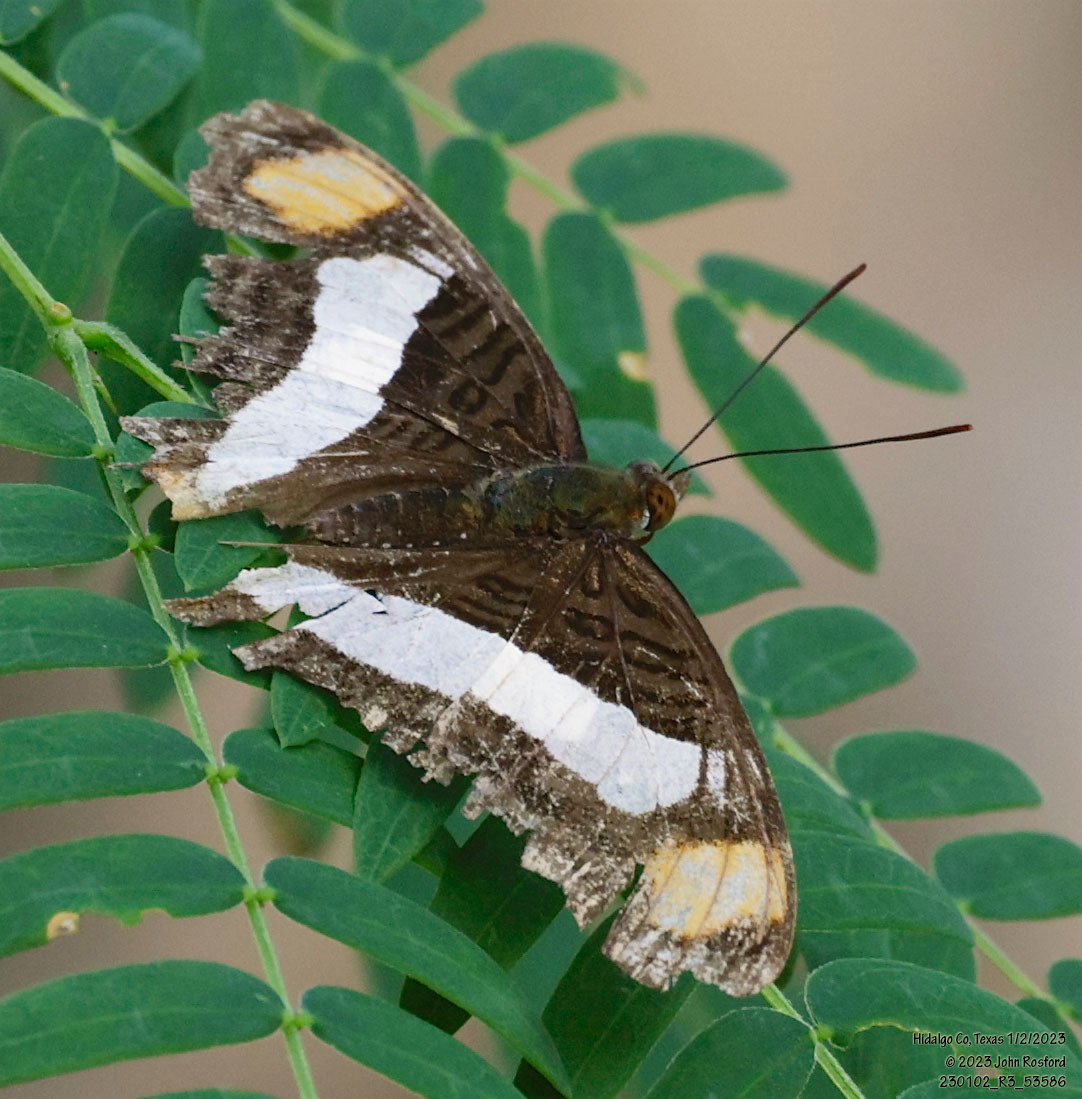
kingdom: Animalia
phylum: Arthropoda
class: Insecta
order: Lepidoptera
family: Nymphalidae
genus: Limenitis
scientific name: Limenitis Adelpha basiloides
